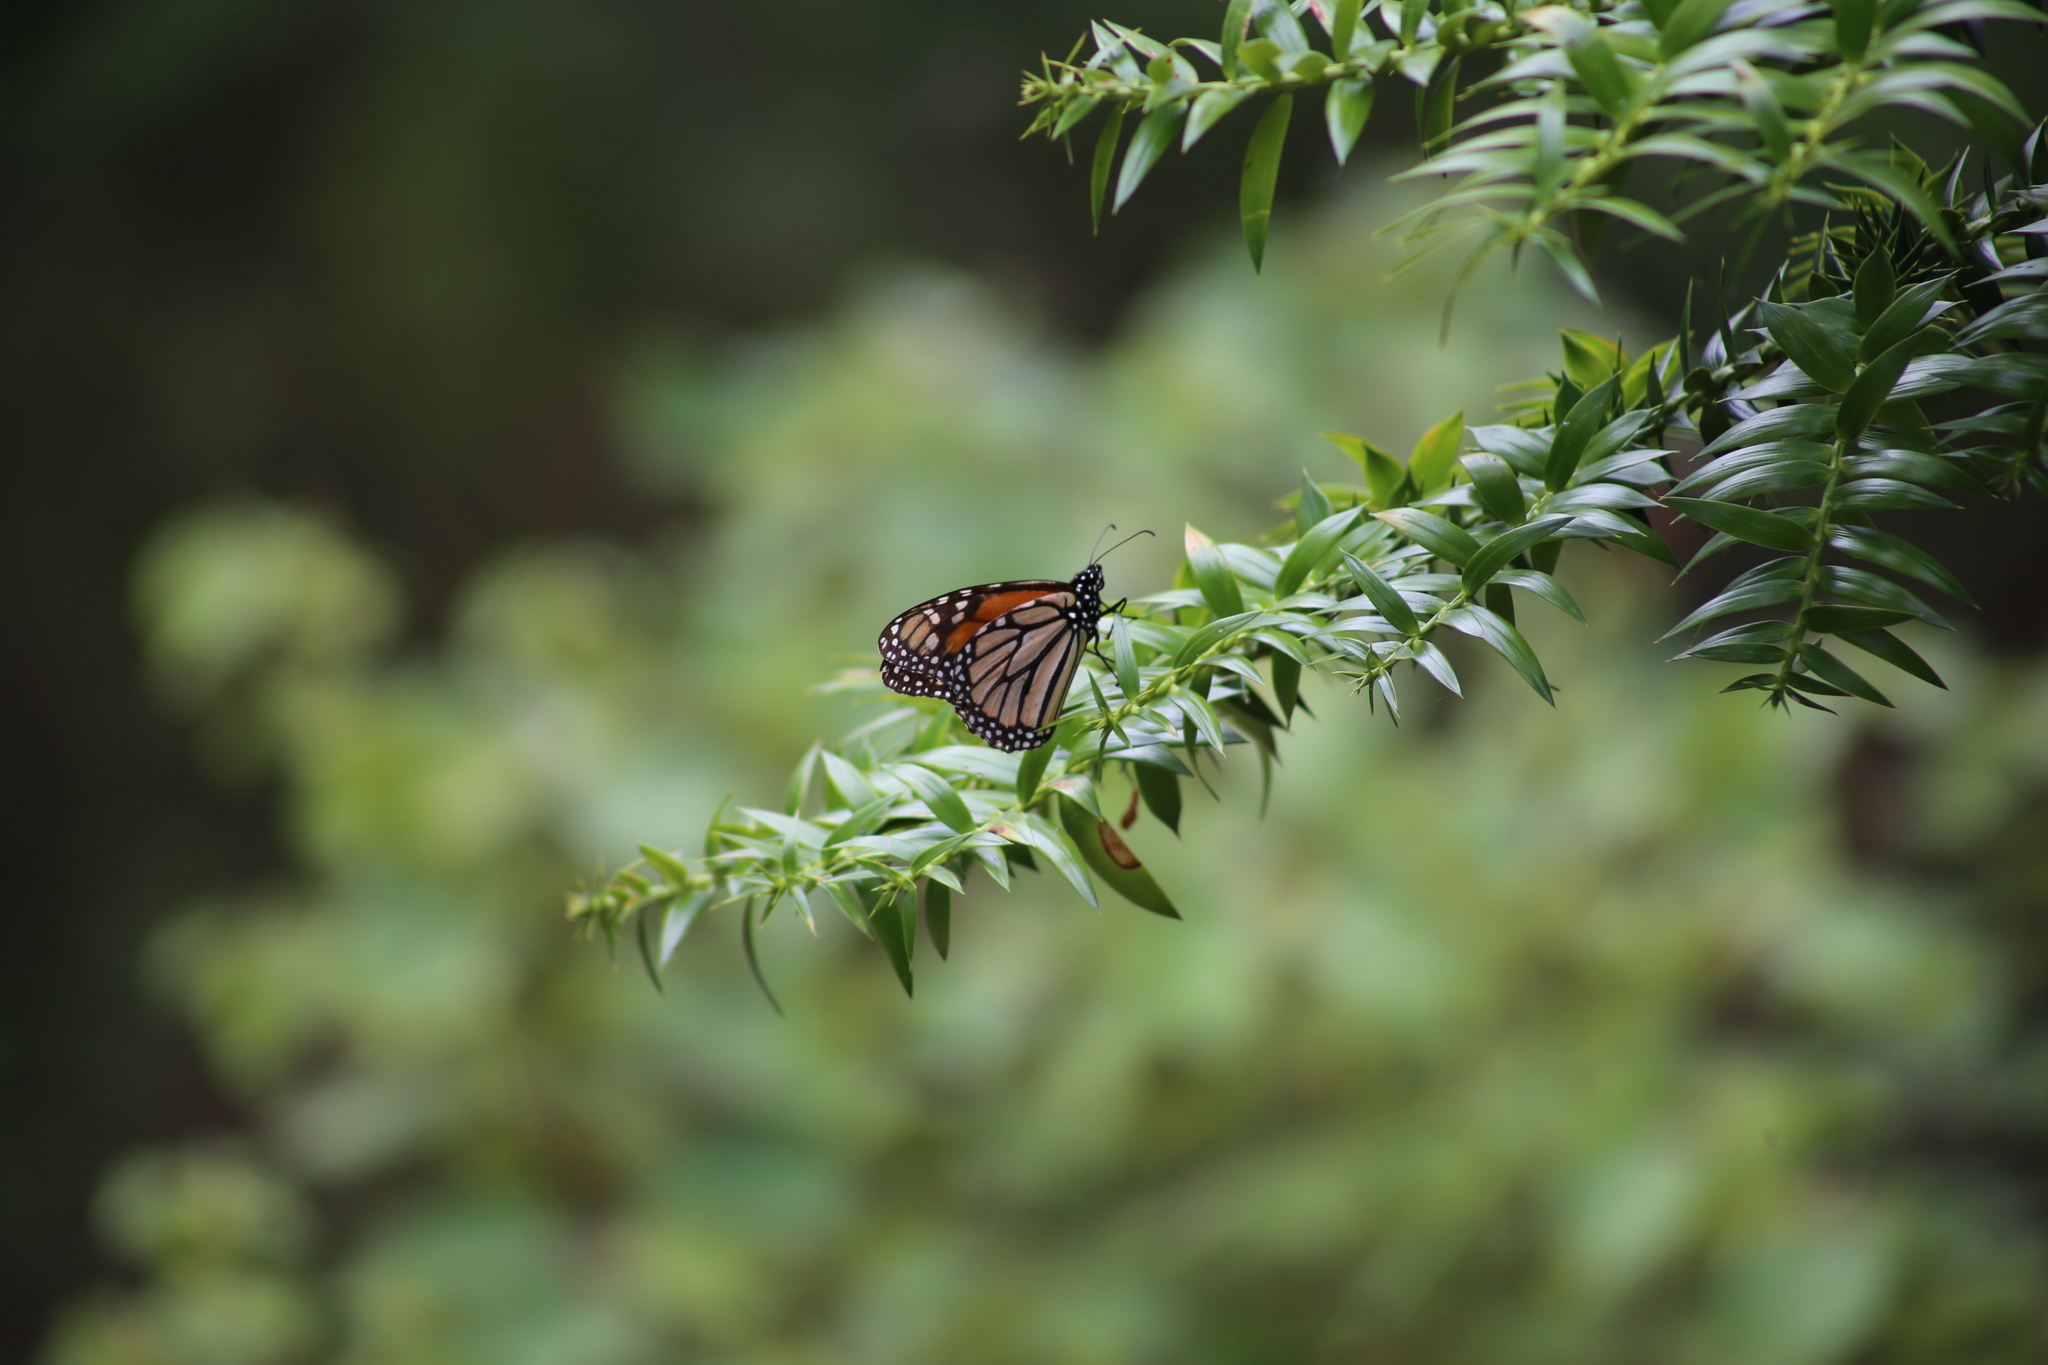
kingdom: Animalia
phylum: Arthropoda
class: Insecta
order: Lepidoptera
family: Nymphalidae
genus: Danaus
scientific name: Danaus plexippus
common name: Monarch
